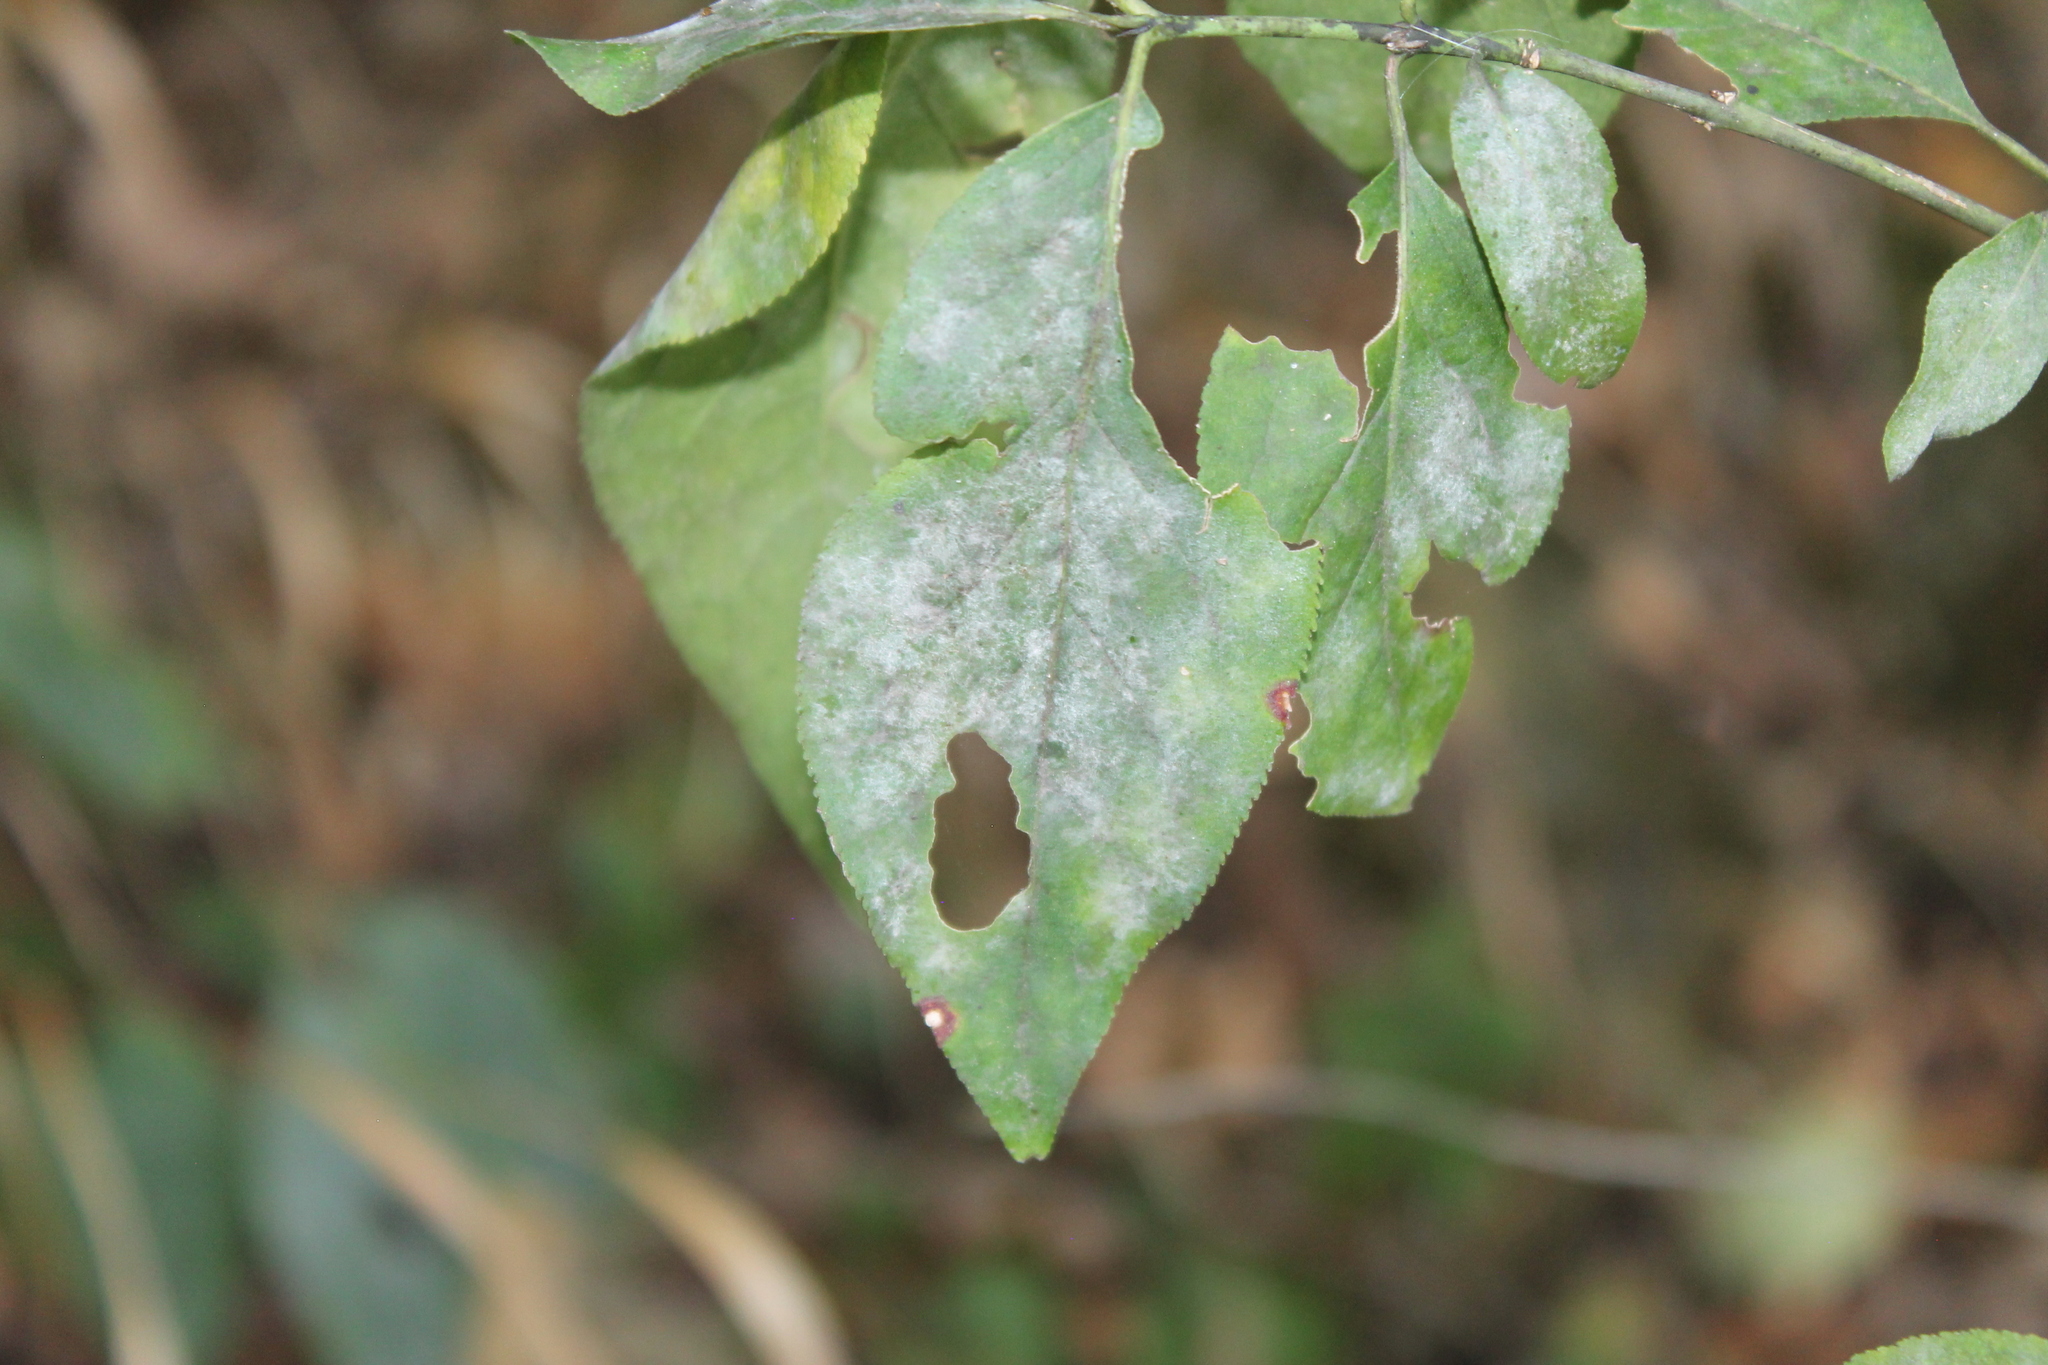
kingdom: Fungi
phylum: Ascomycota
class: Leotiomycetes
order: Helotiales
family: Erysiphaceae
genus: Erysiphe
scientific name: Erysiphe euonymicola
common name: Spindletree mildew
